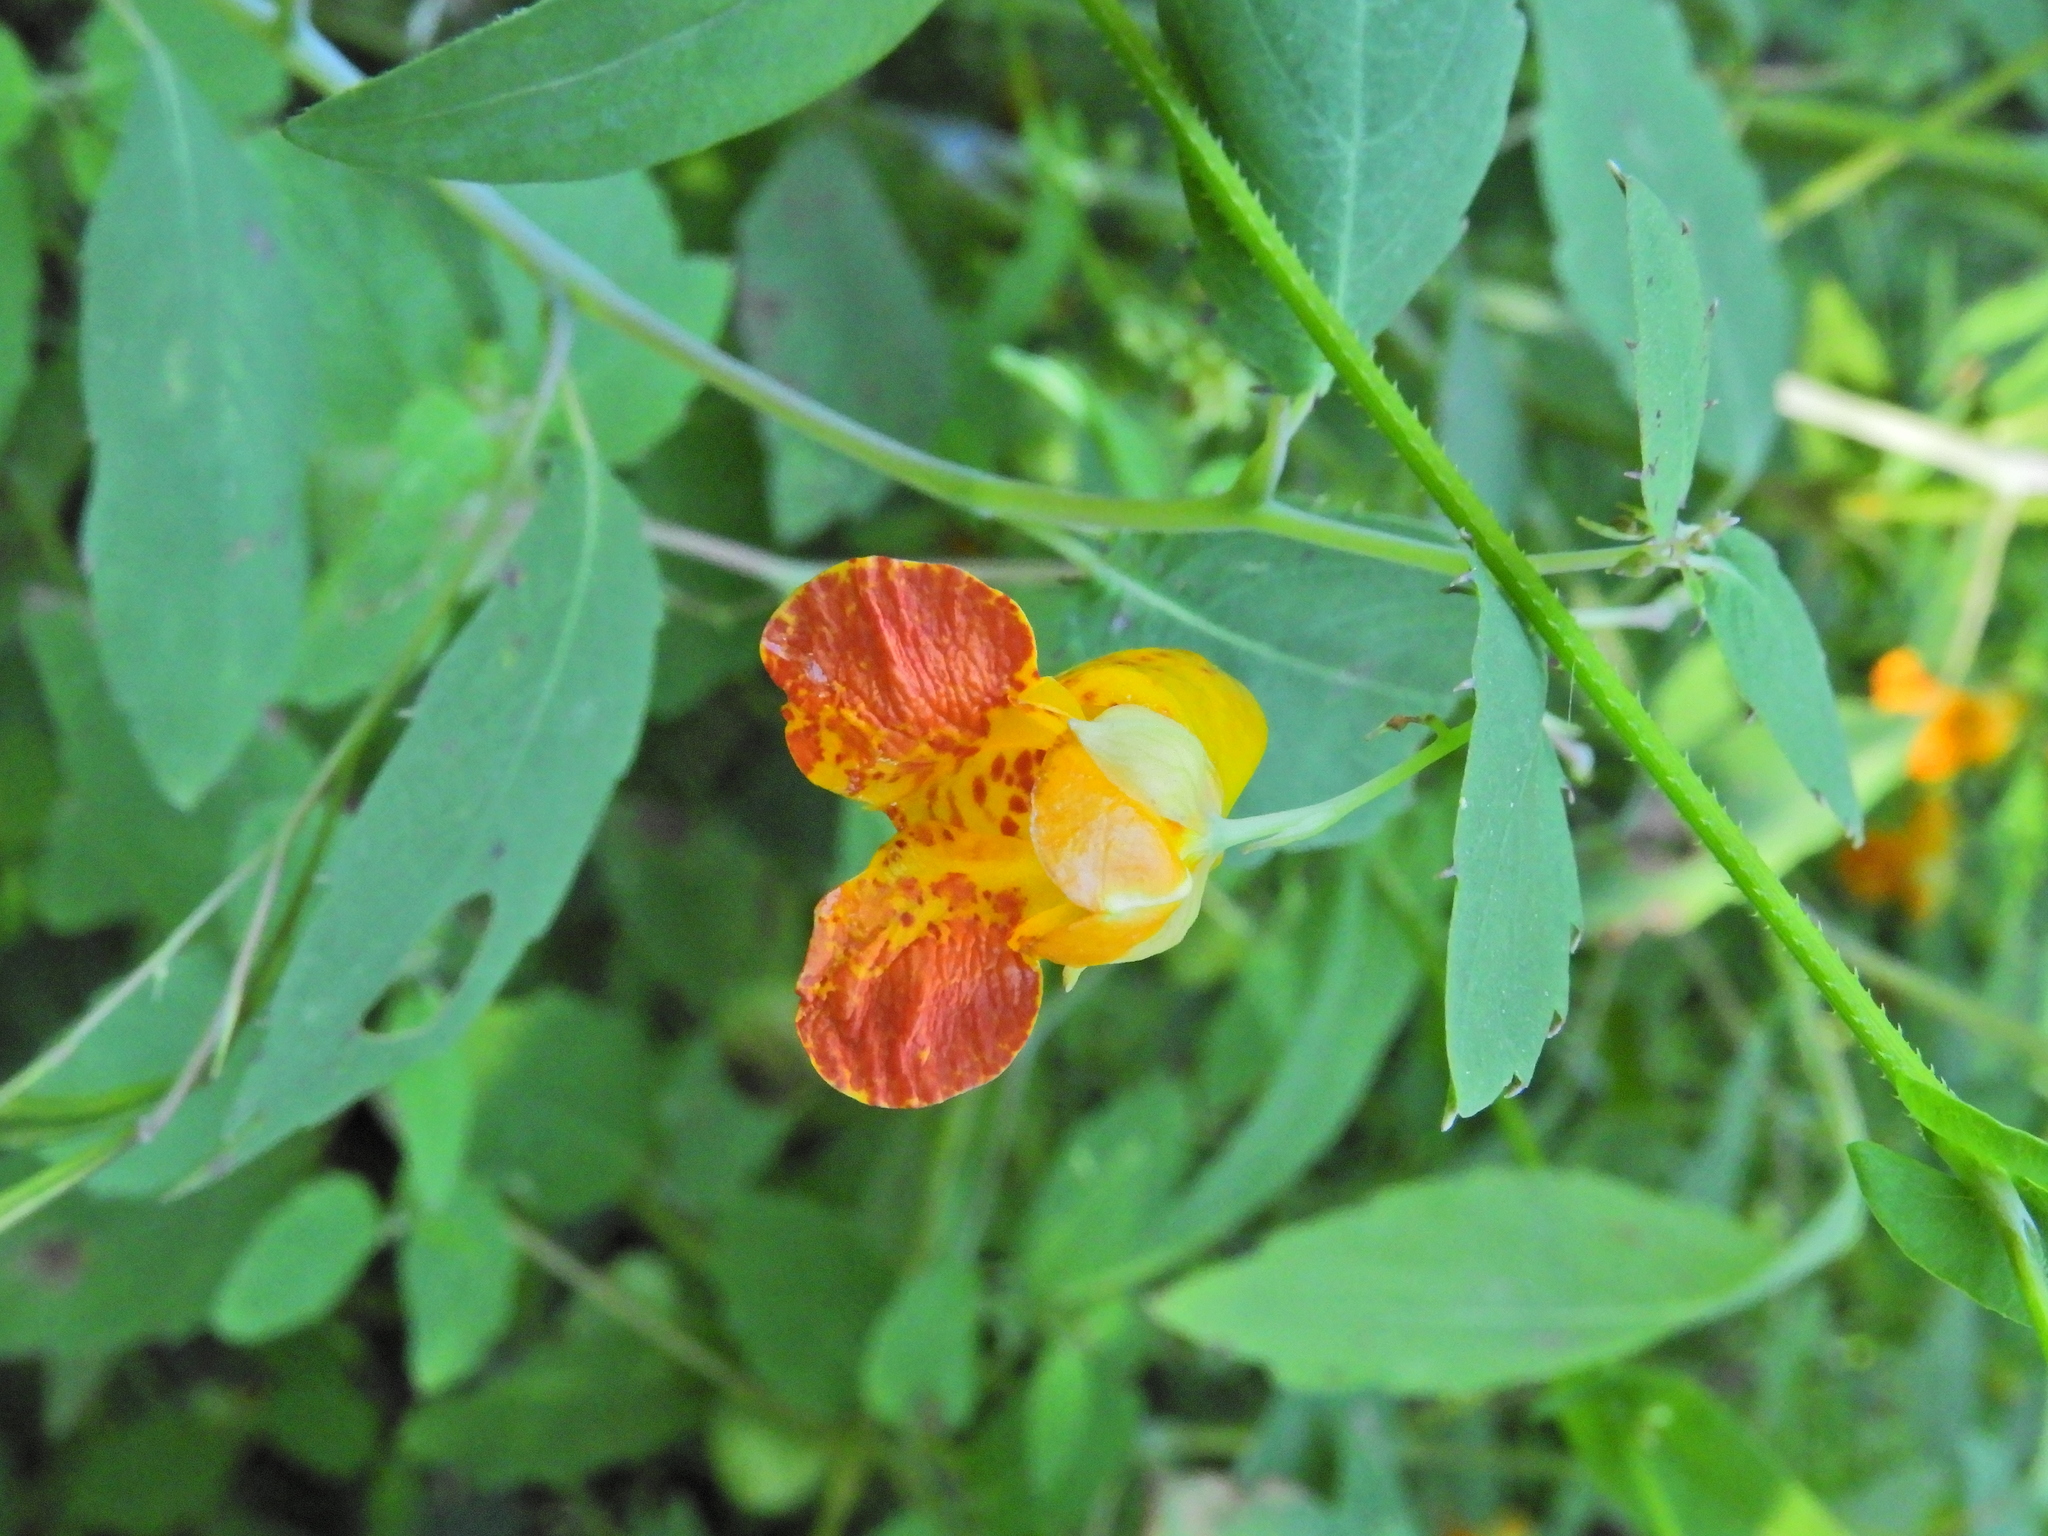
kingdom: Plantae
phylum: Tracheophyta
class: Magnoliopsida
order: Ericales
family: Balsaminaceae
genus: Impatiens
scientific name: Impatiens capensis
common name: Orange balsam
